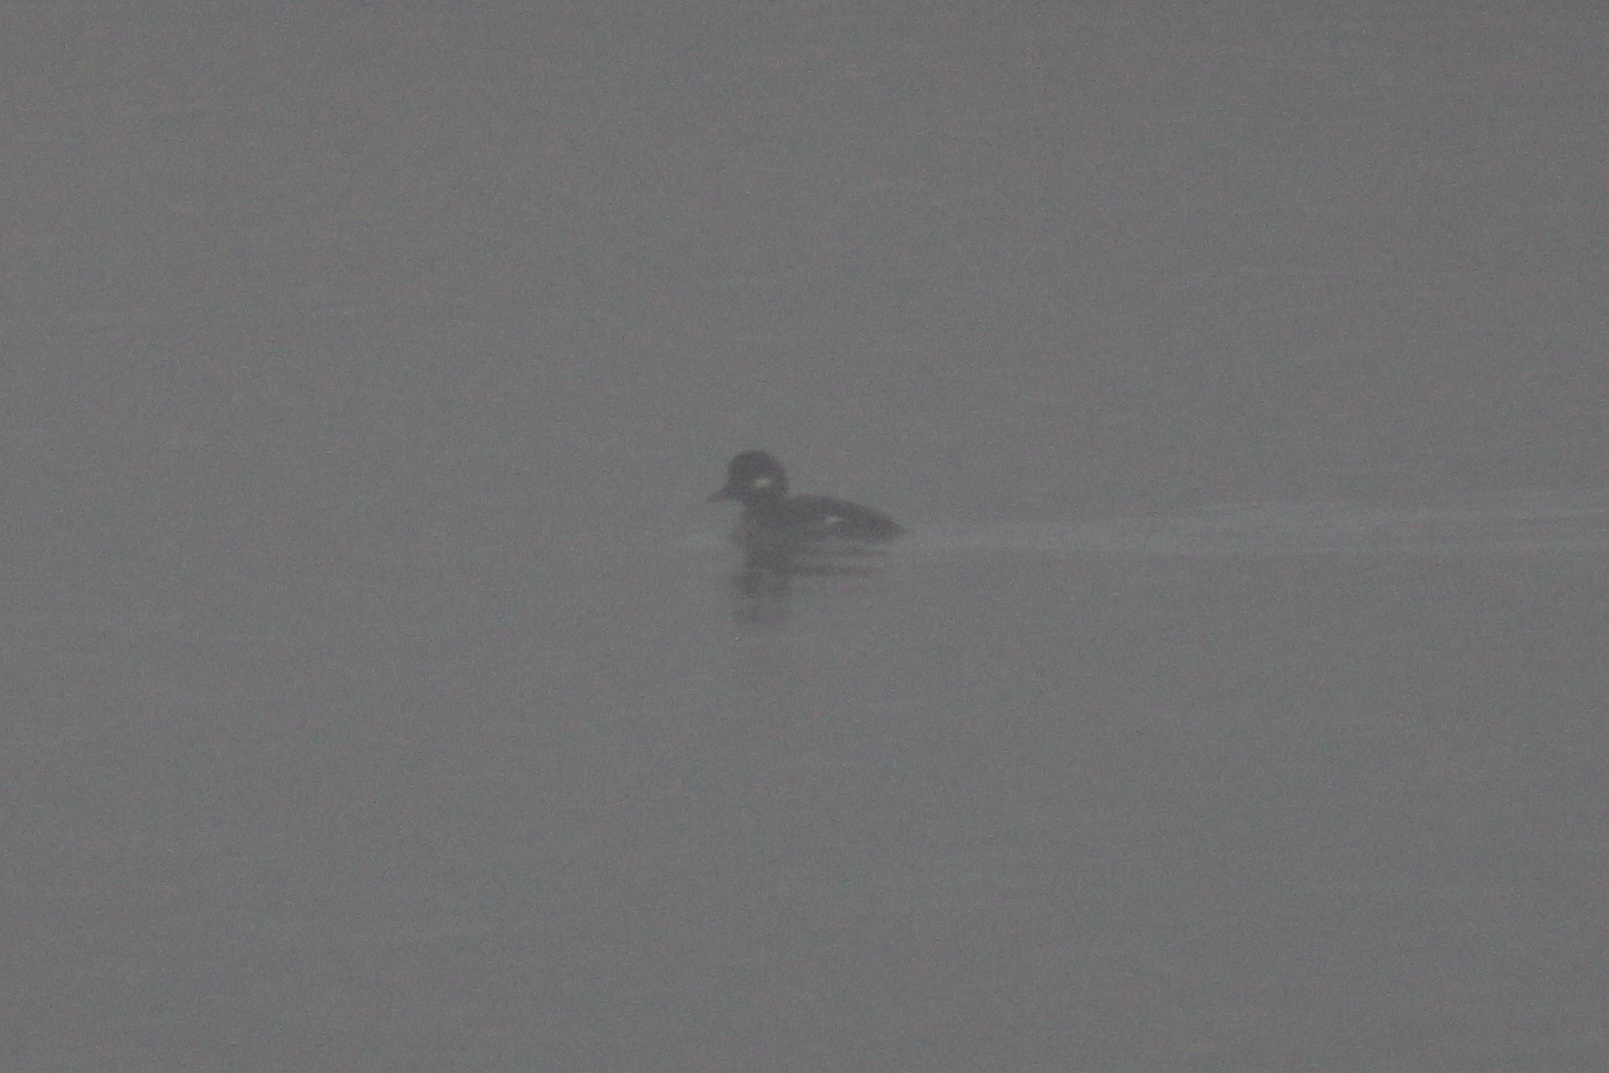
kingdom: Animalia
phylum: Chordata
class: Aves
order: Anseriformes
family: Anatidae
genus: Bucephala
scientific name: Bucephala albeola
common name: Bufflehead
